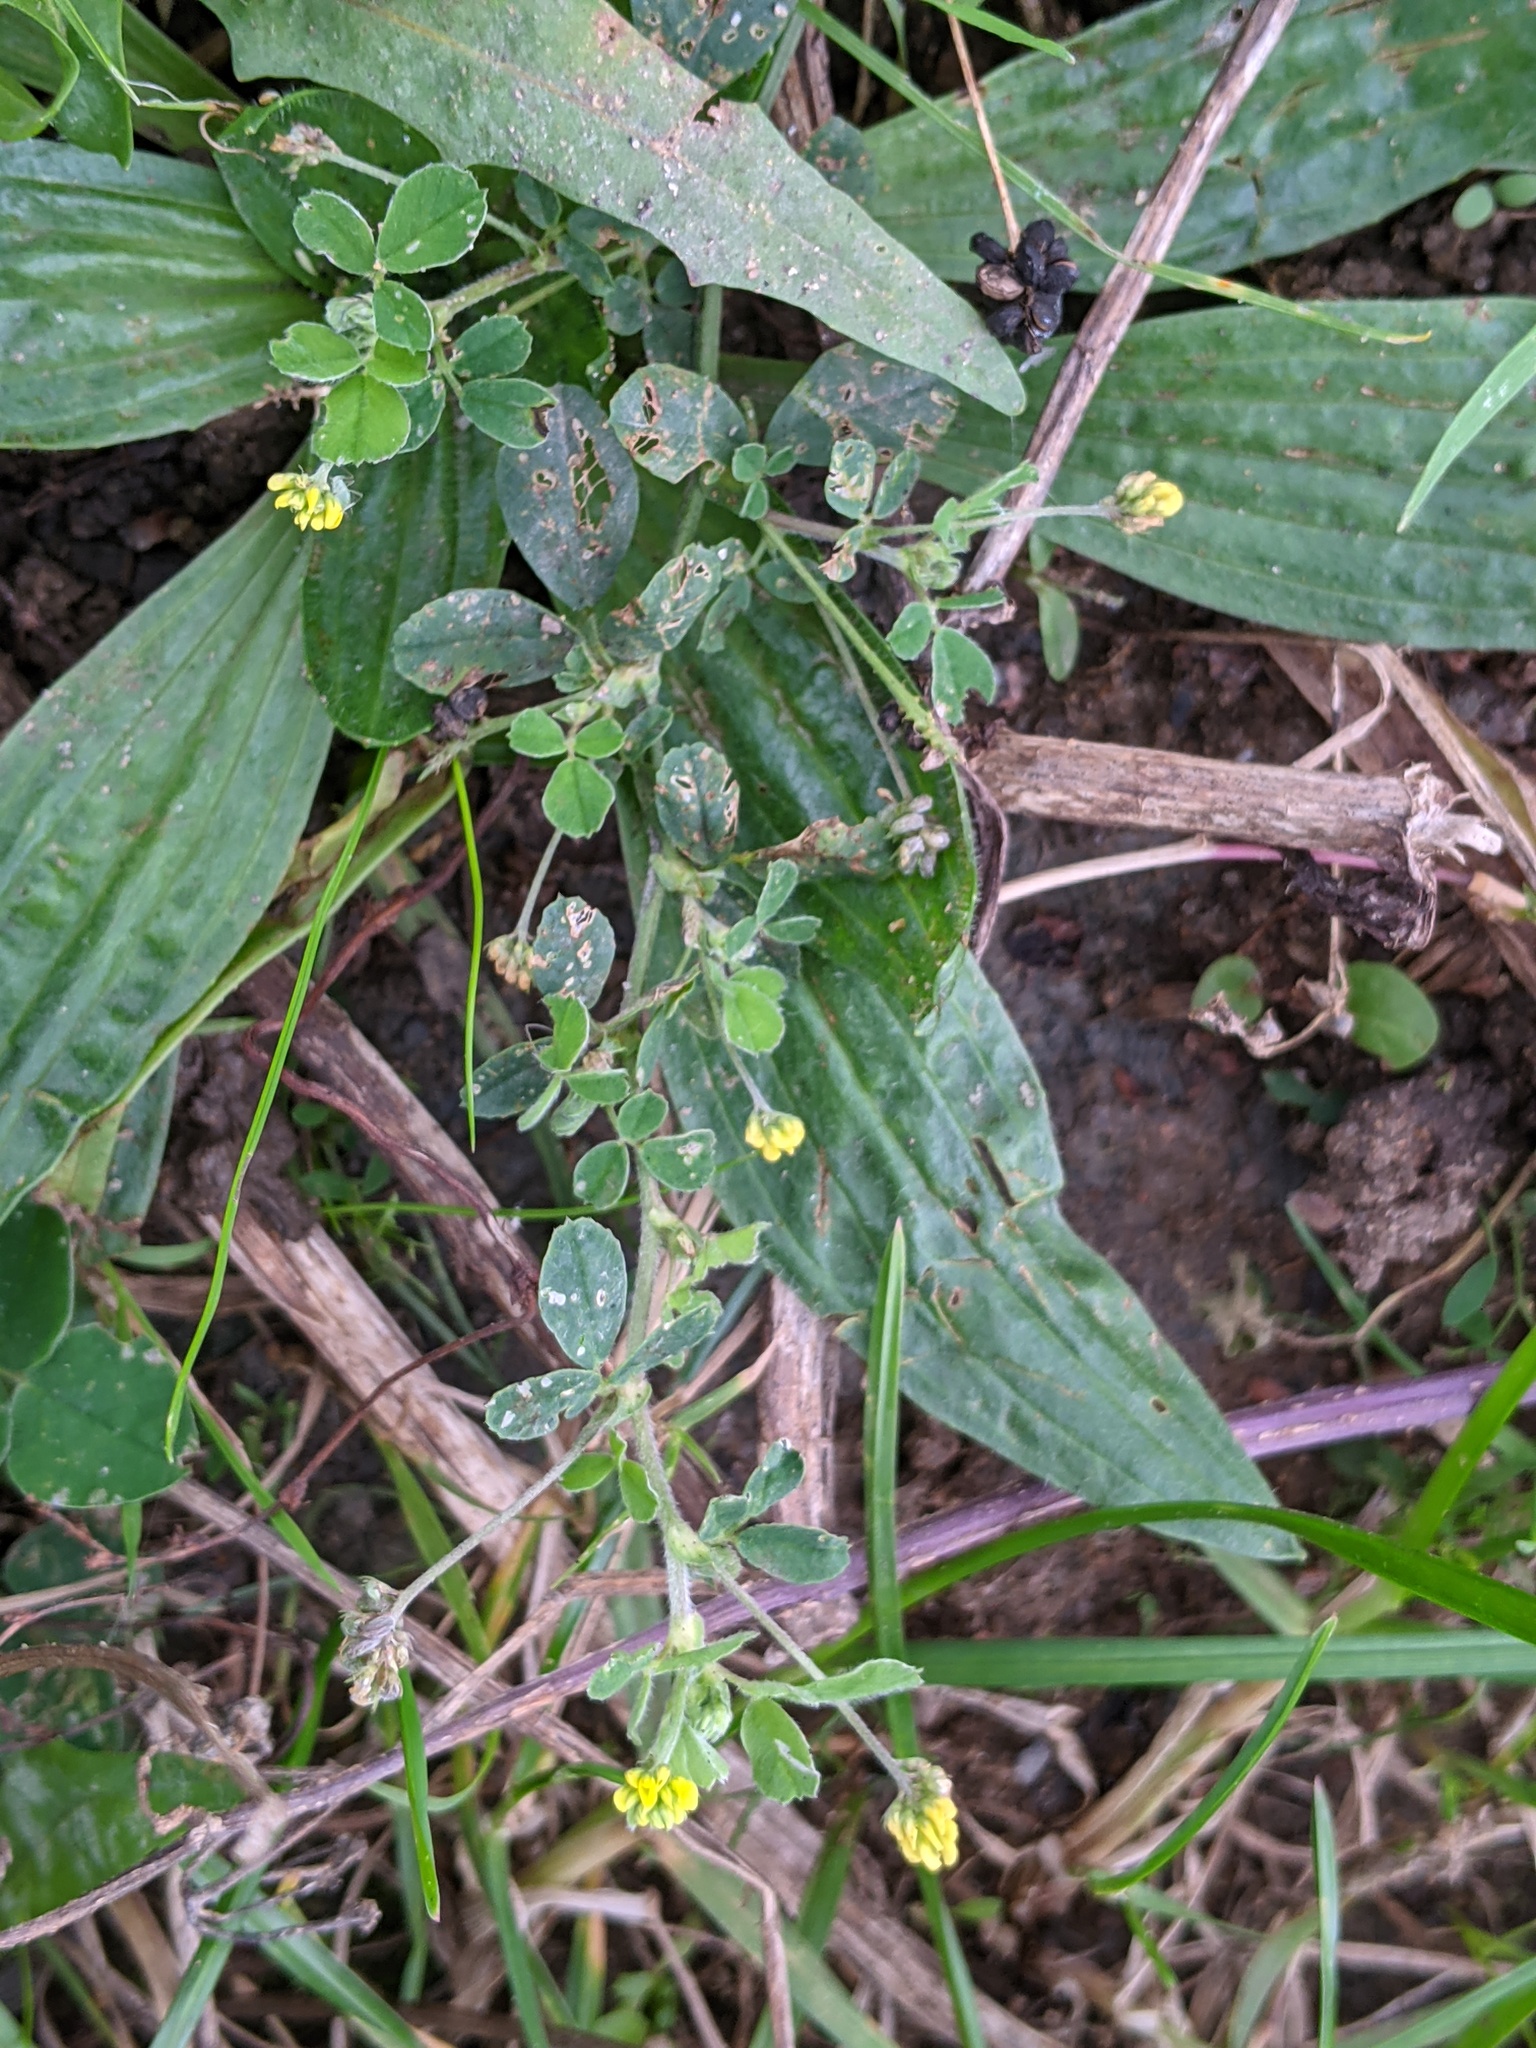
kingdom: Plantae
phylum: Tracheophyta
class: Magnoliopsida
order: Fabales
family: Fabaceae
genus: Medicago
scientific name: Medicago lupulina
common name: Black medick
